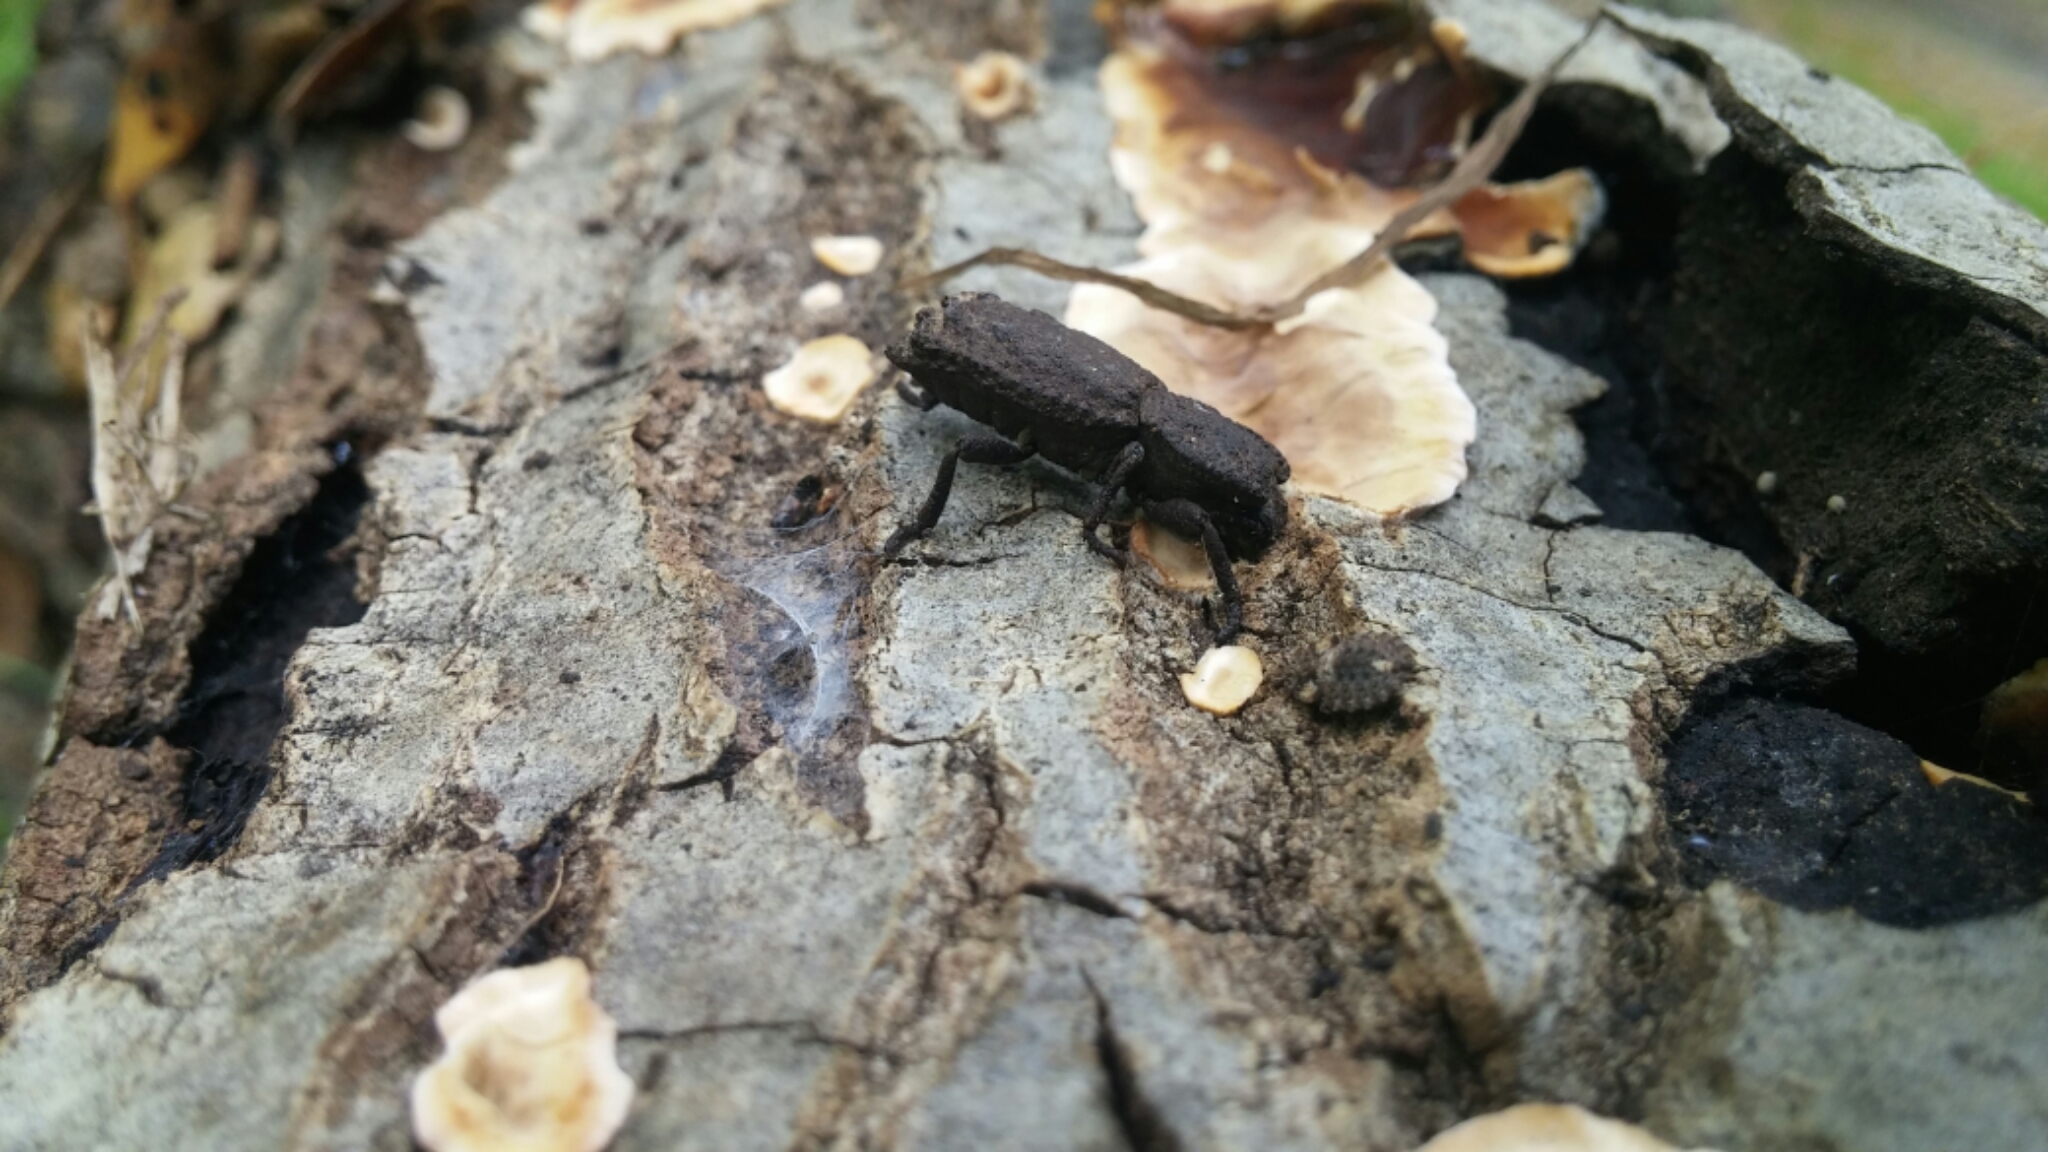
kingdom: Animalia
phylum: Arthropoda
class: Insecta
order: Coleoptera
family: Zopheridae
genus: Phloeodes
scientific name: Phloeodes plicatus
